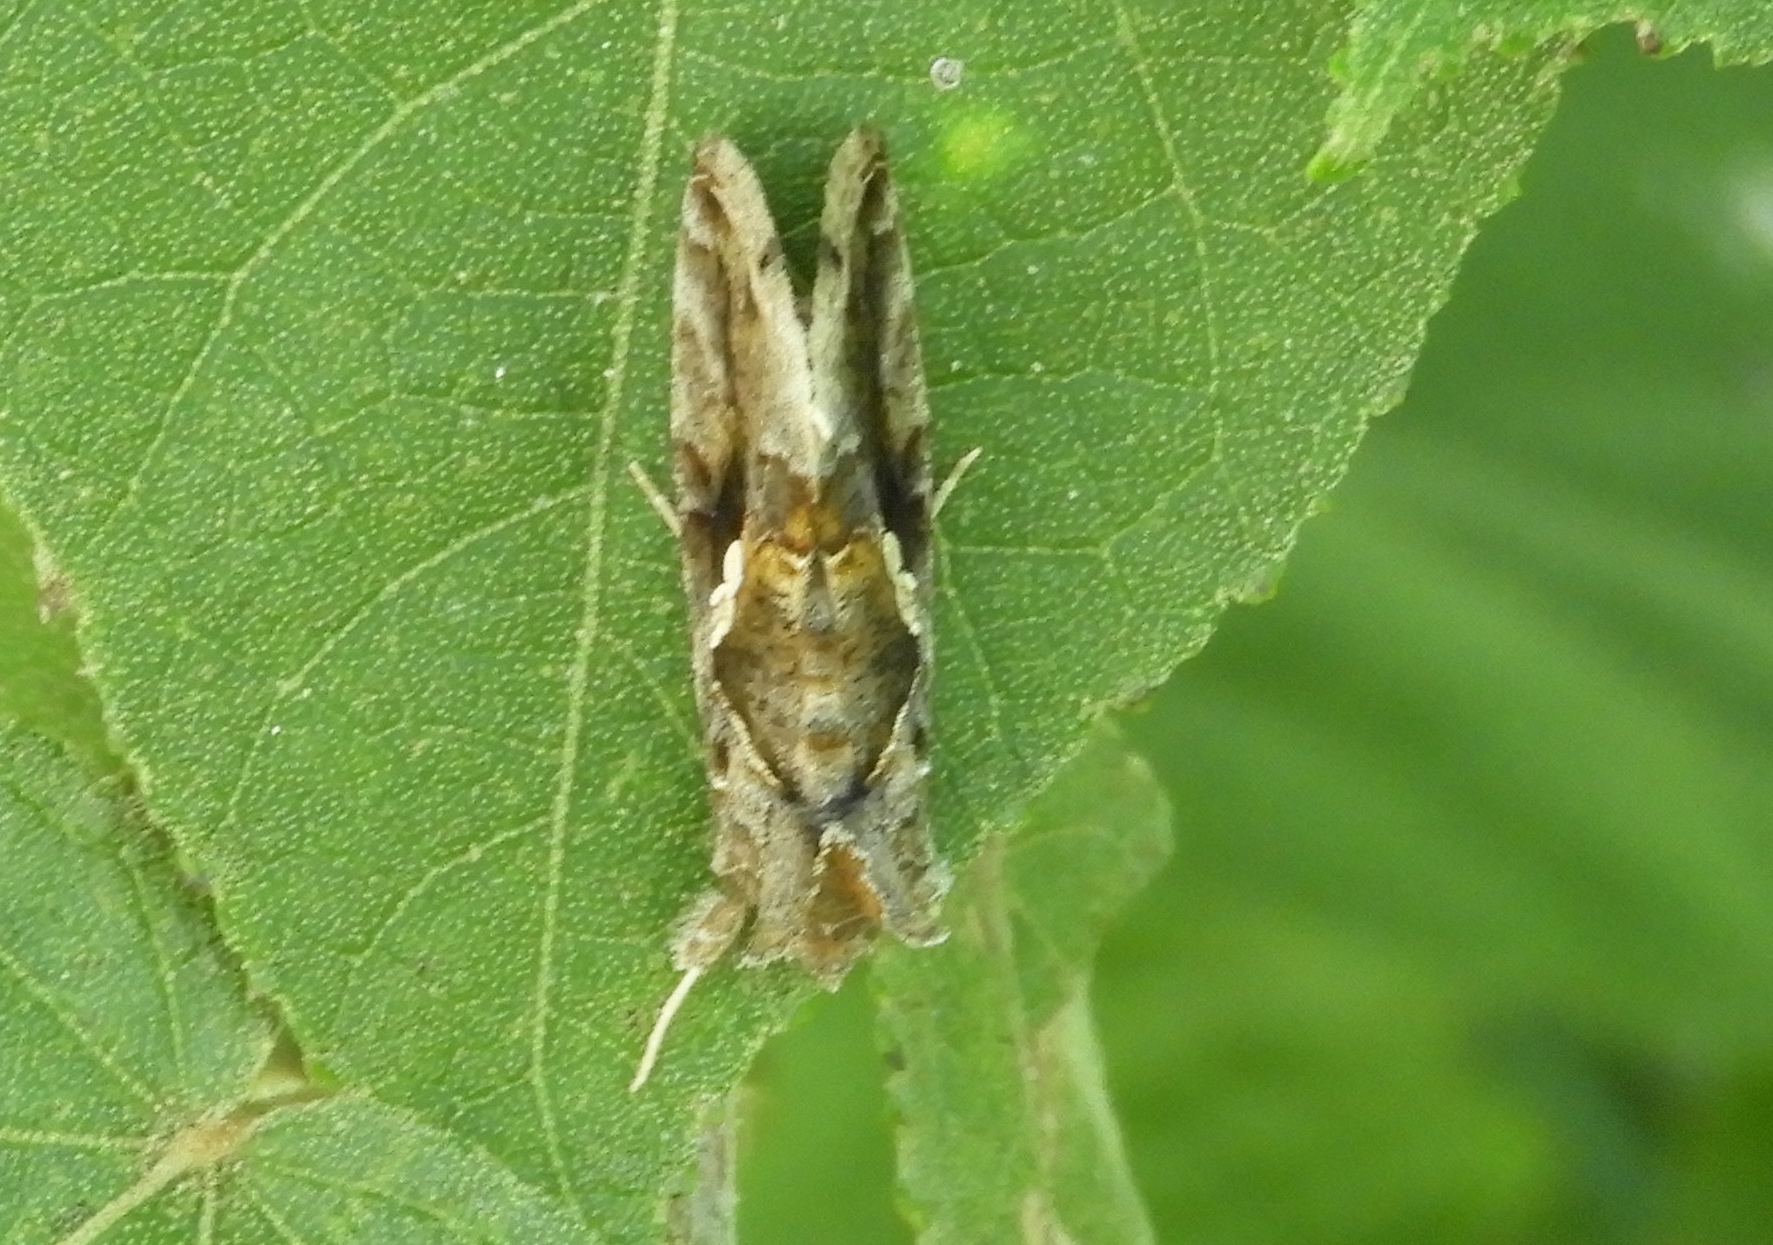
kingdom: Animalia
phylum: Arthropoda
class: Insecta
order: Lepidoptera
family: Noctuidae
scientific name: Noctuidae
